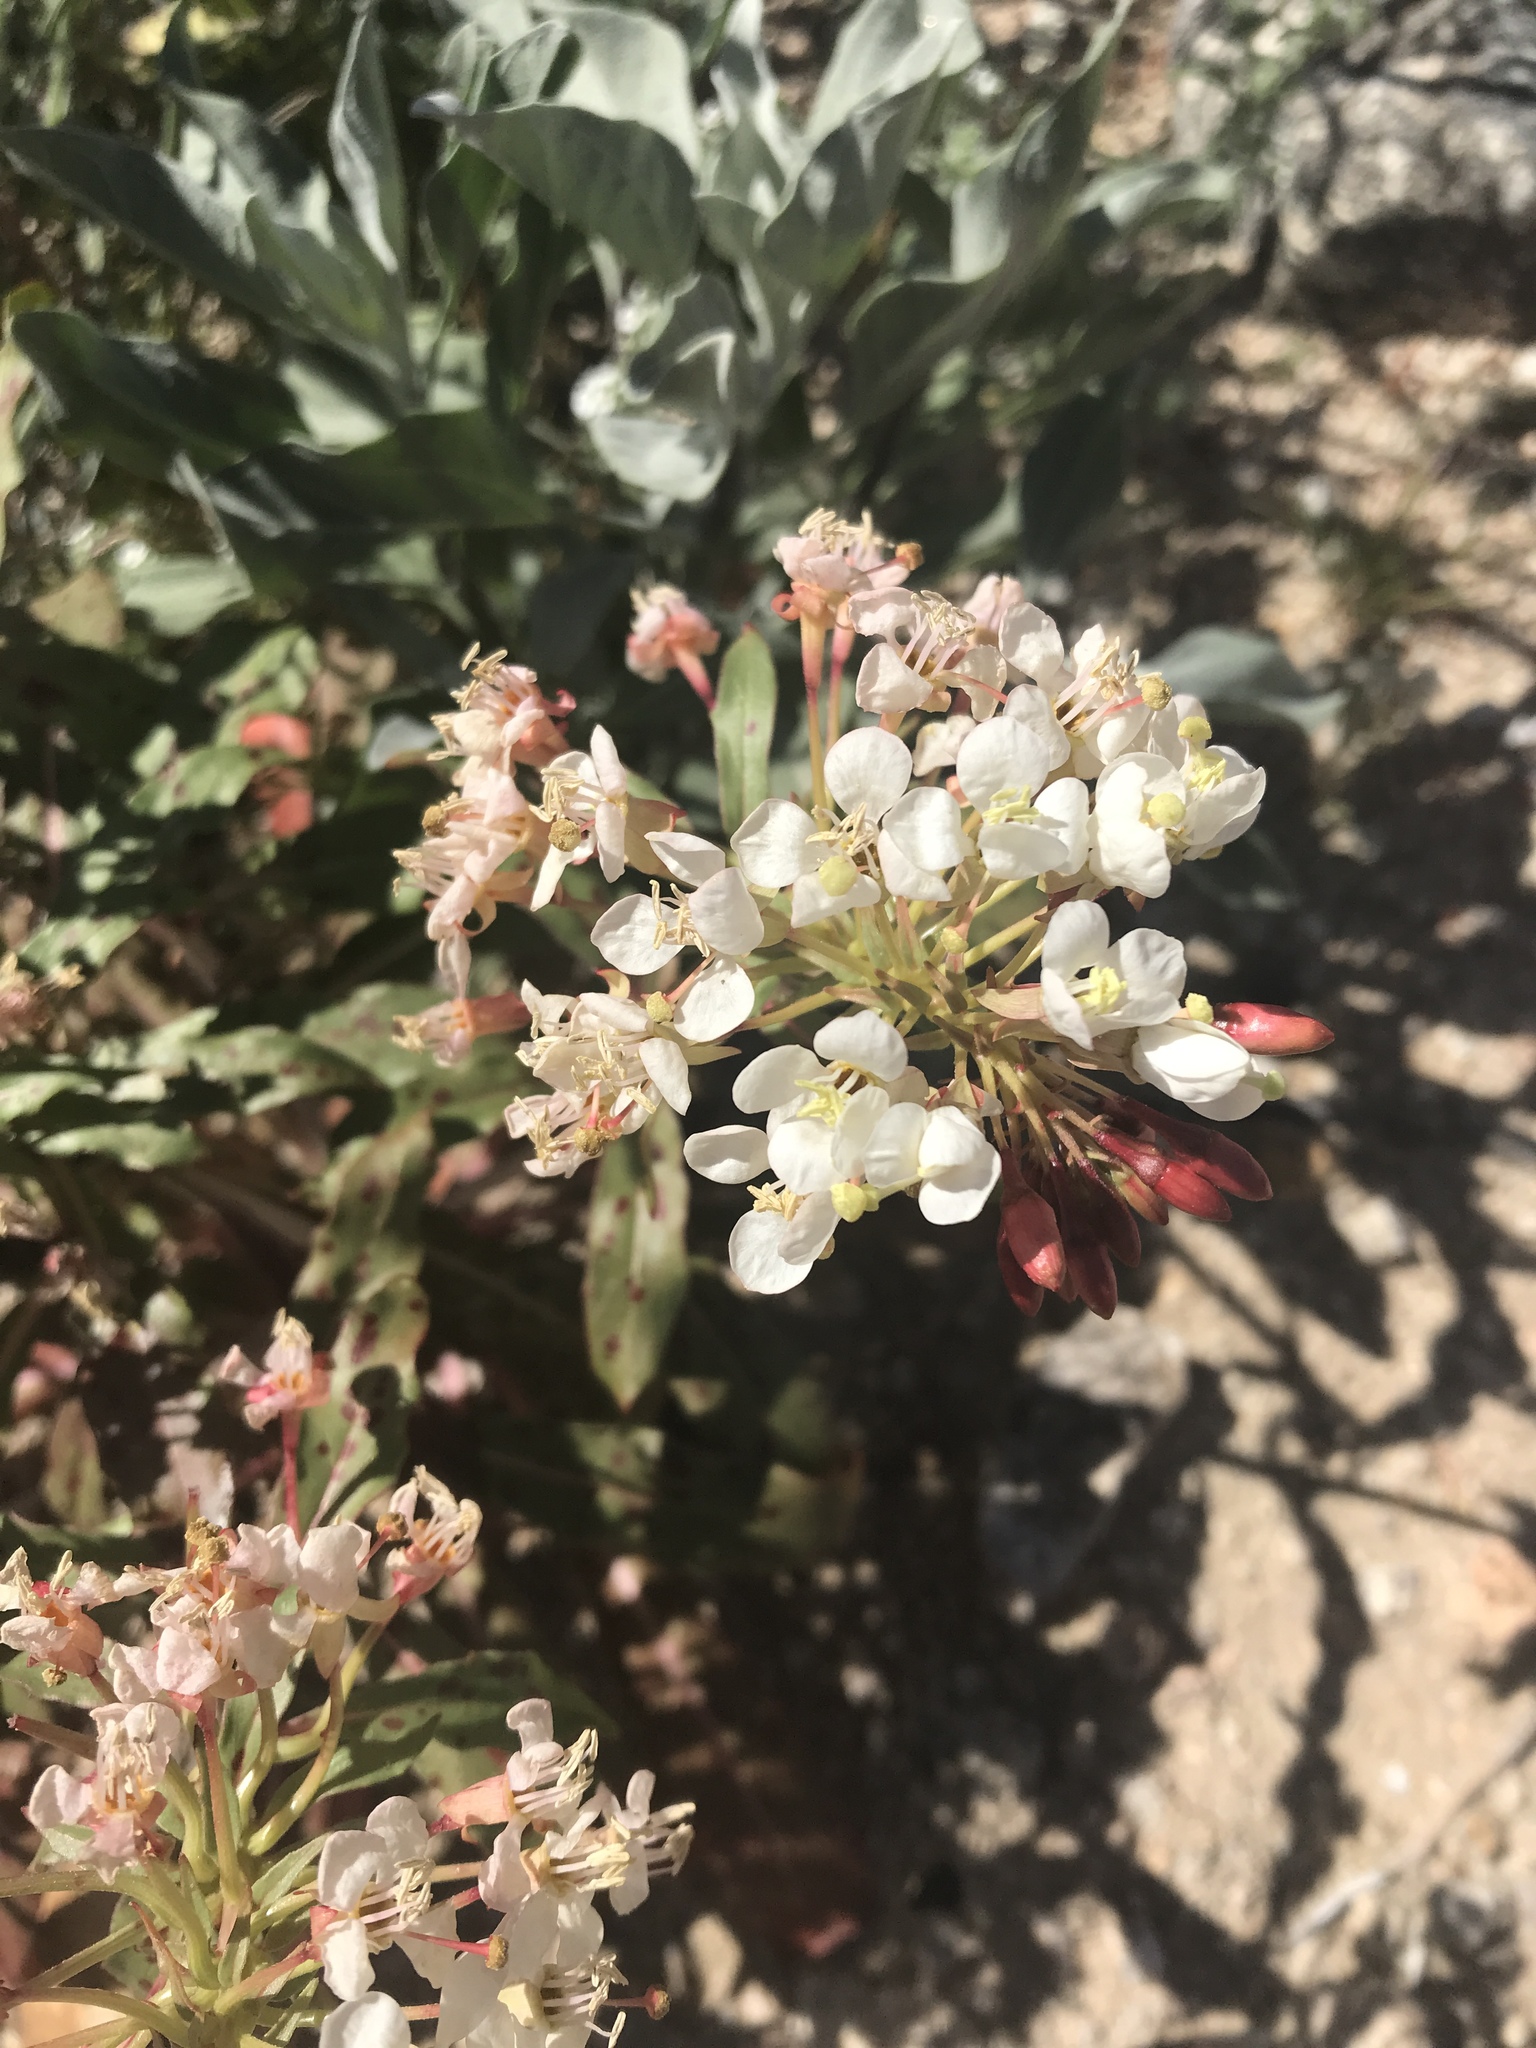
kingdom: Plantae
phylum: Tracheophyta
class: Magnoliopsida
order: Myrtales
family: Onagraceae
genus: Eremothera
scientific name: Eremothera boothii
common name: Booth's evening primrose
